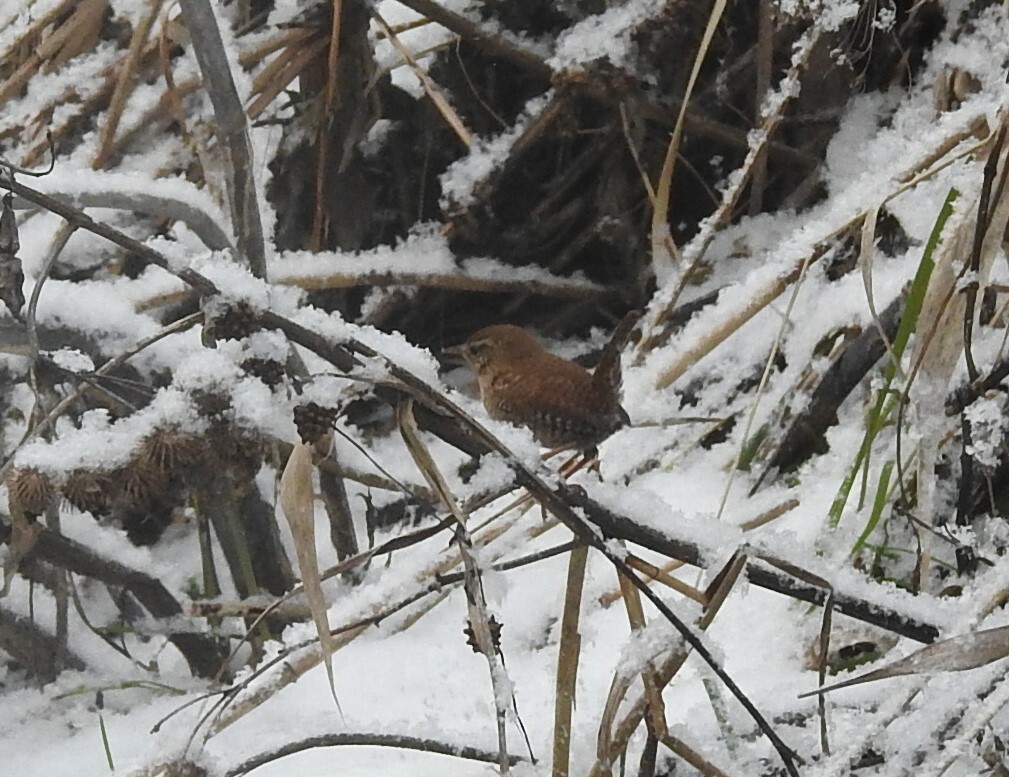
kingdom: Animalia
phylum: Chordata
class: Aves
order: Passeriformes
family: Troglodytidae
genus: Troglodytes
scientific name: Troglodytes troglodytes
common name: Eurasian wren
